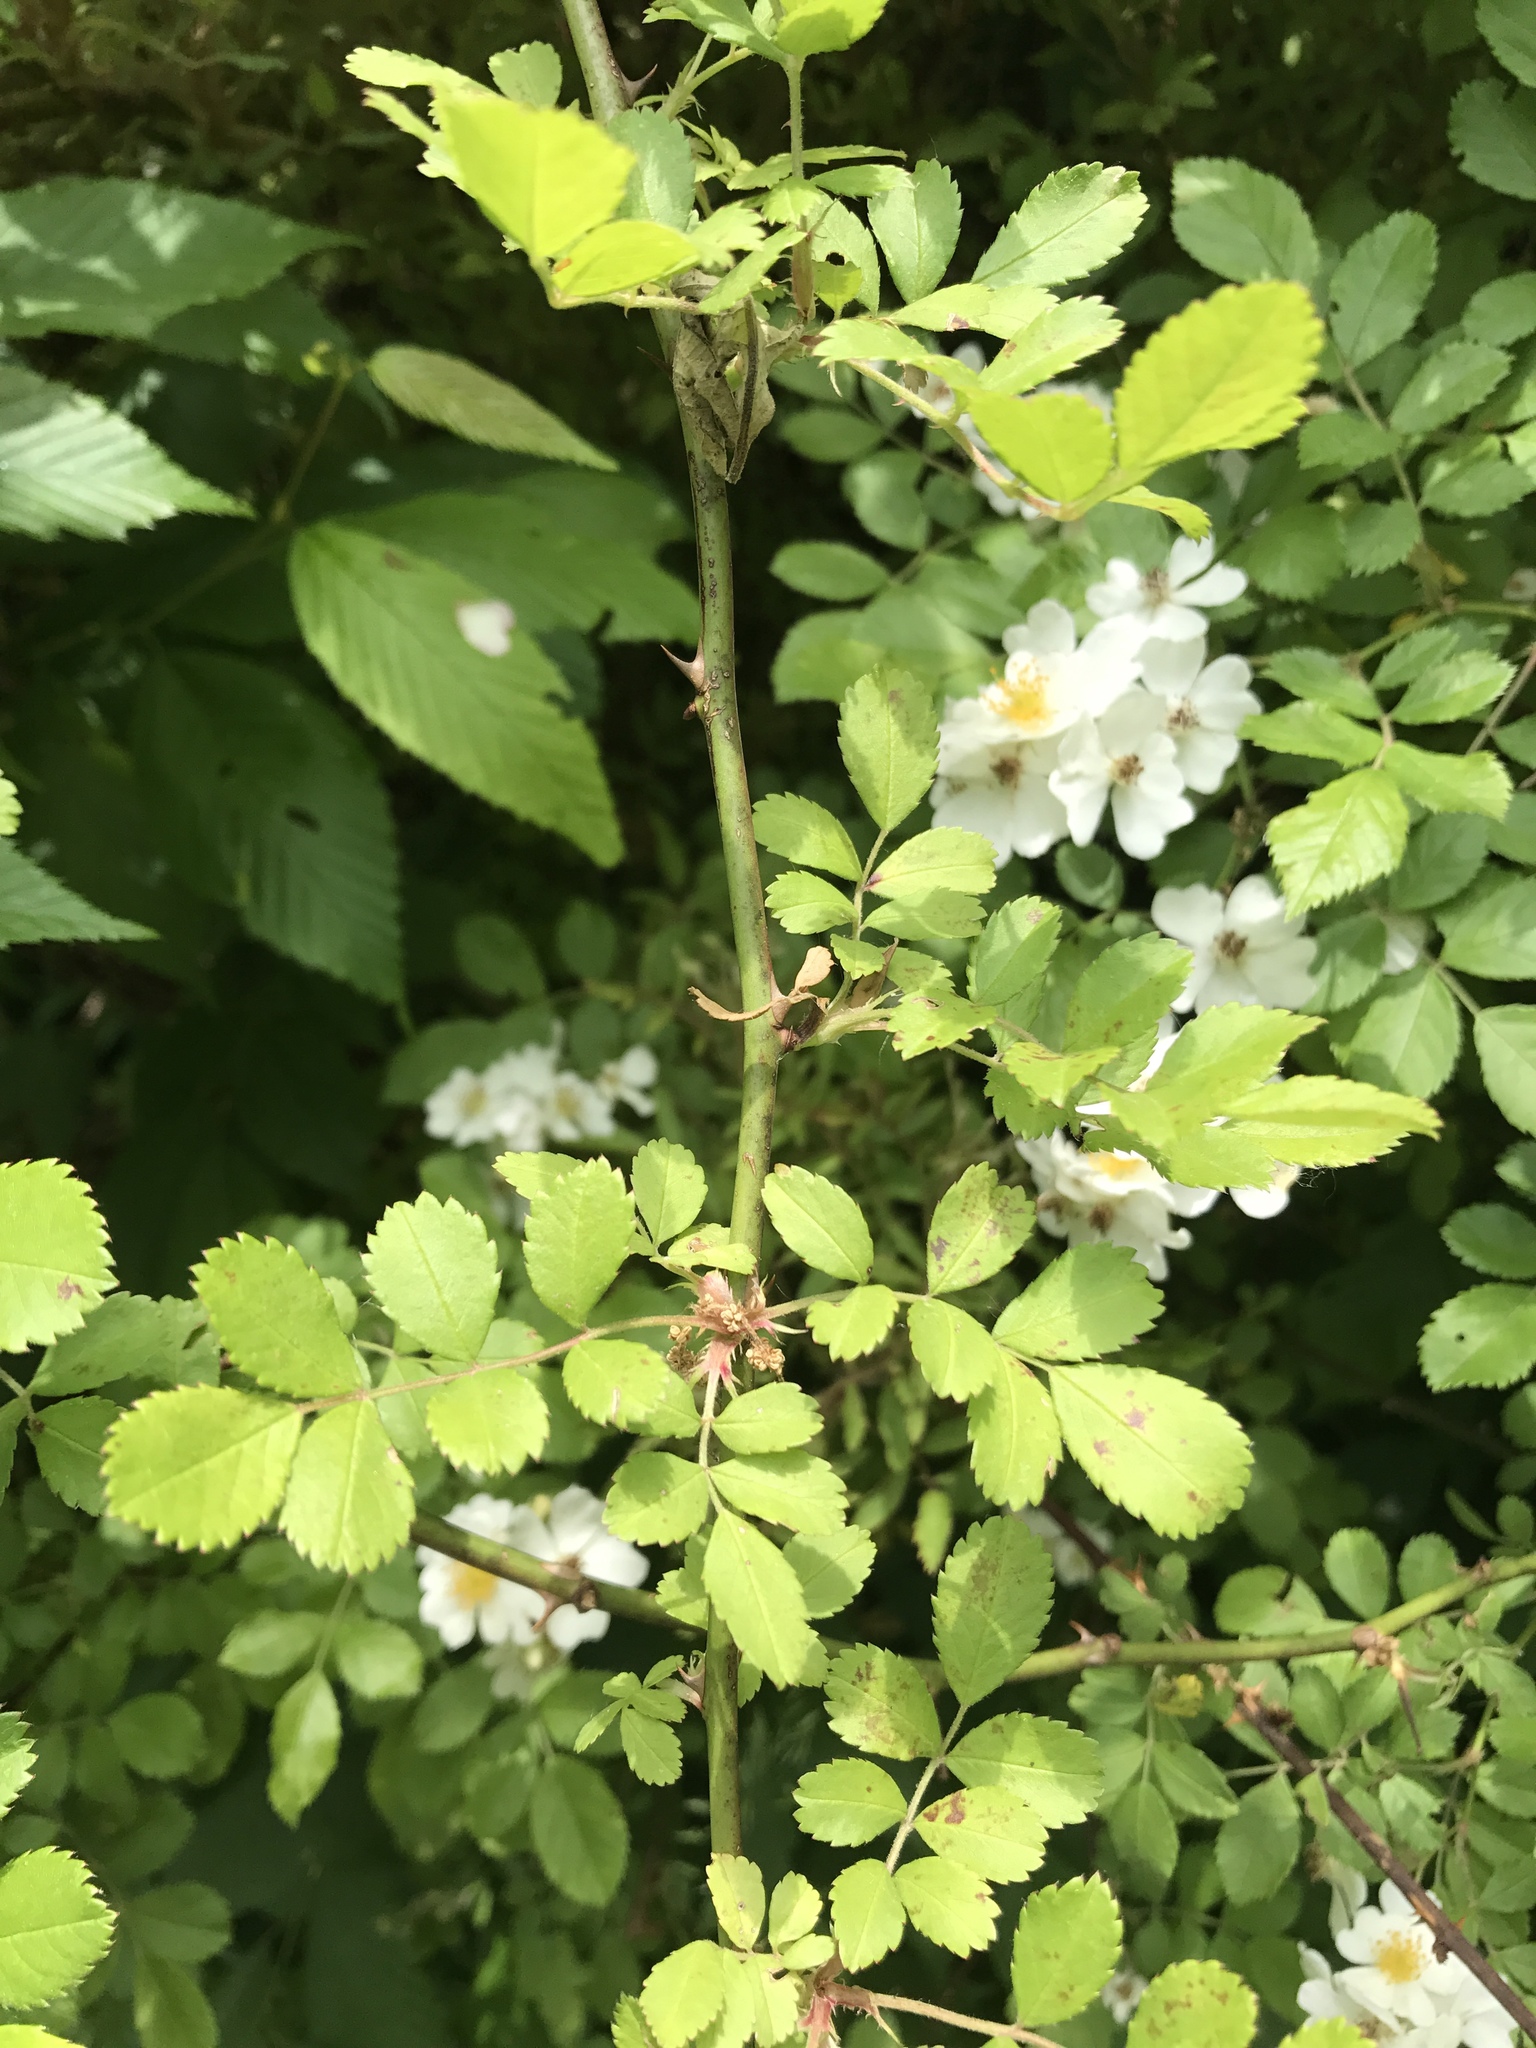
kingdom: Plantae
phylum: Tracheophyta
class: Magnoliopsida
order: Rosales
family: Rosaceae
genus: Rosa
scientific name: Rosa multiflora
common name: Multiflora rose
